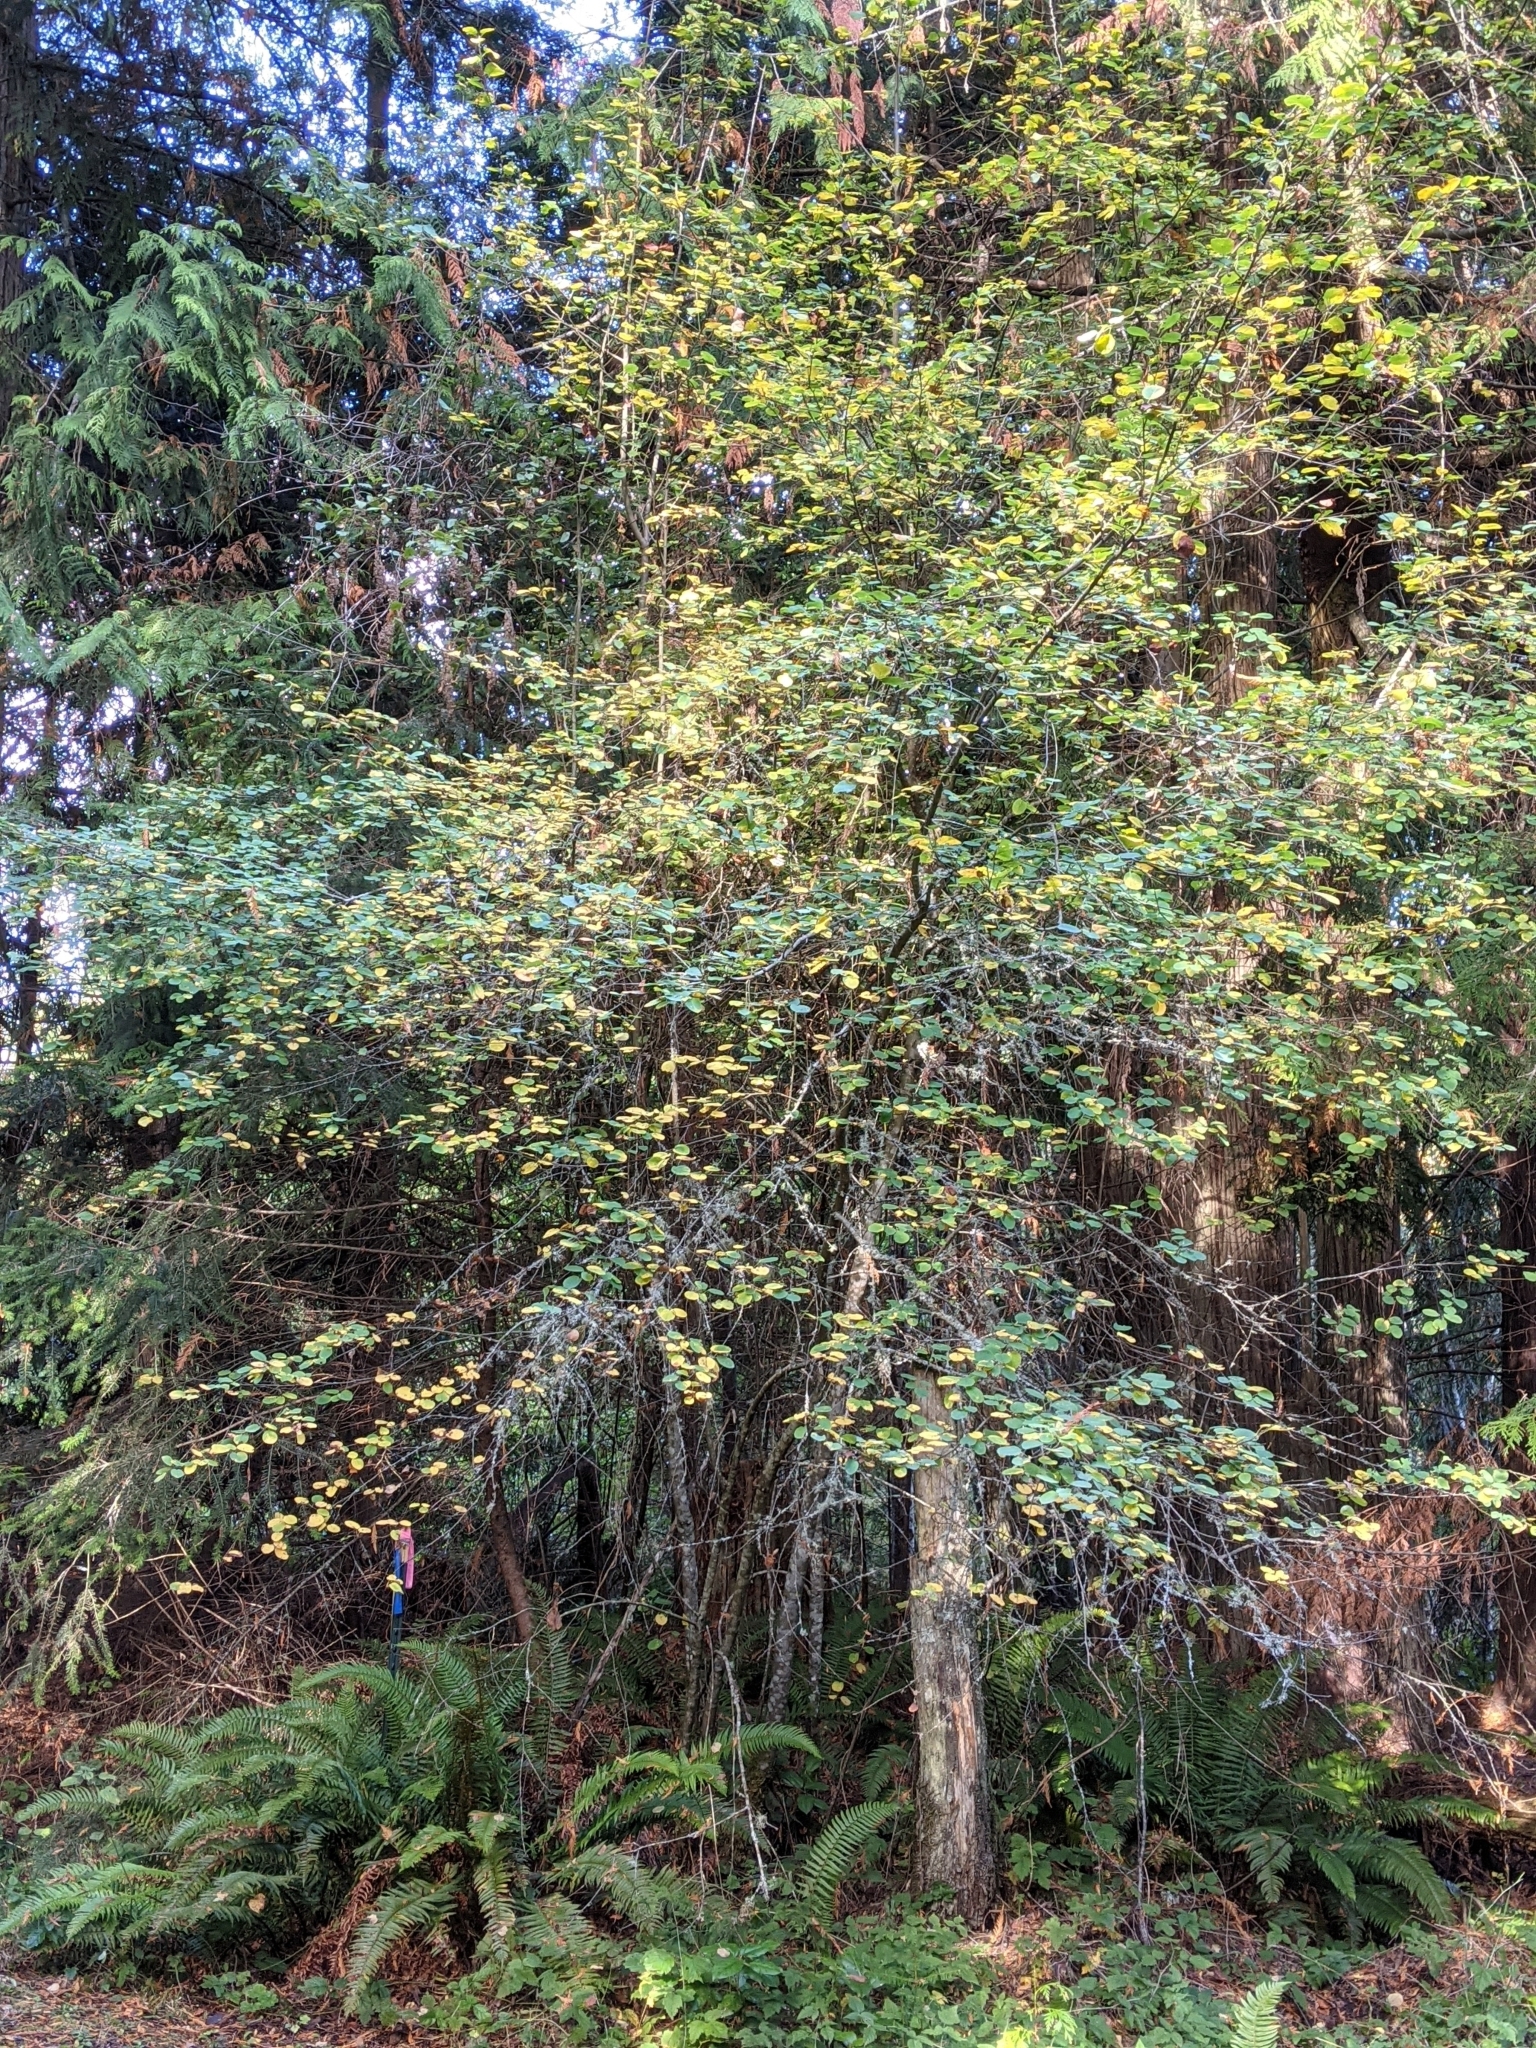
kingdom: Plantae
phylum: Tracheophyta
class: Magnoliopsida
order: Rosales
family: Rosaceae
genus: Amelanchier
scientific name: Amelanchier alnifolia
